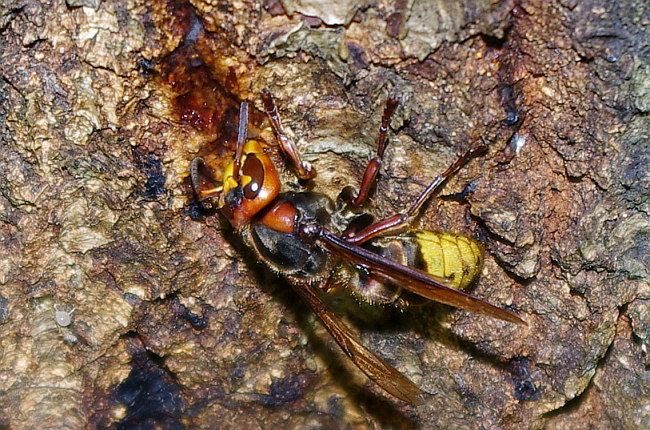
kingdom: Animalia
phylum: Arthropoda
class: Insecta
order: Hymenoptera
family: Vespidae
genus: Vespa
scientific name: Vespa crabro
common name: Hornet
